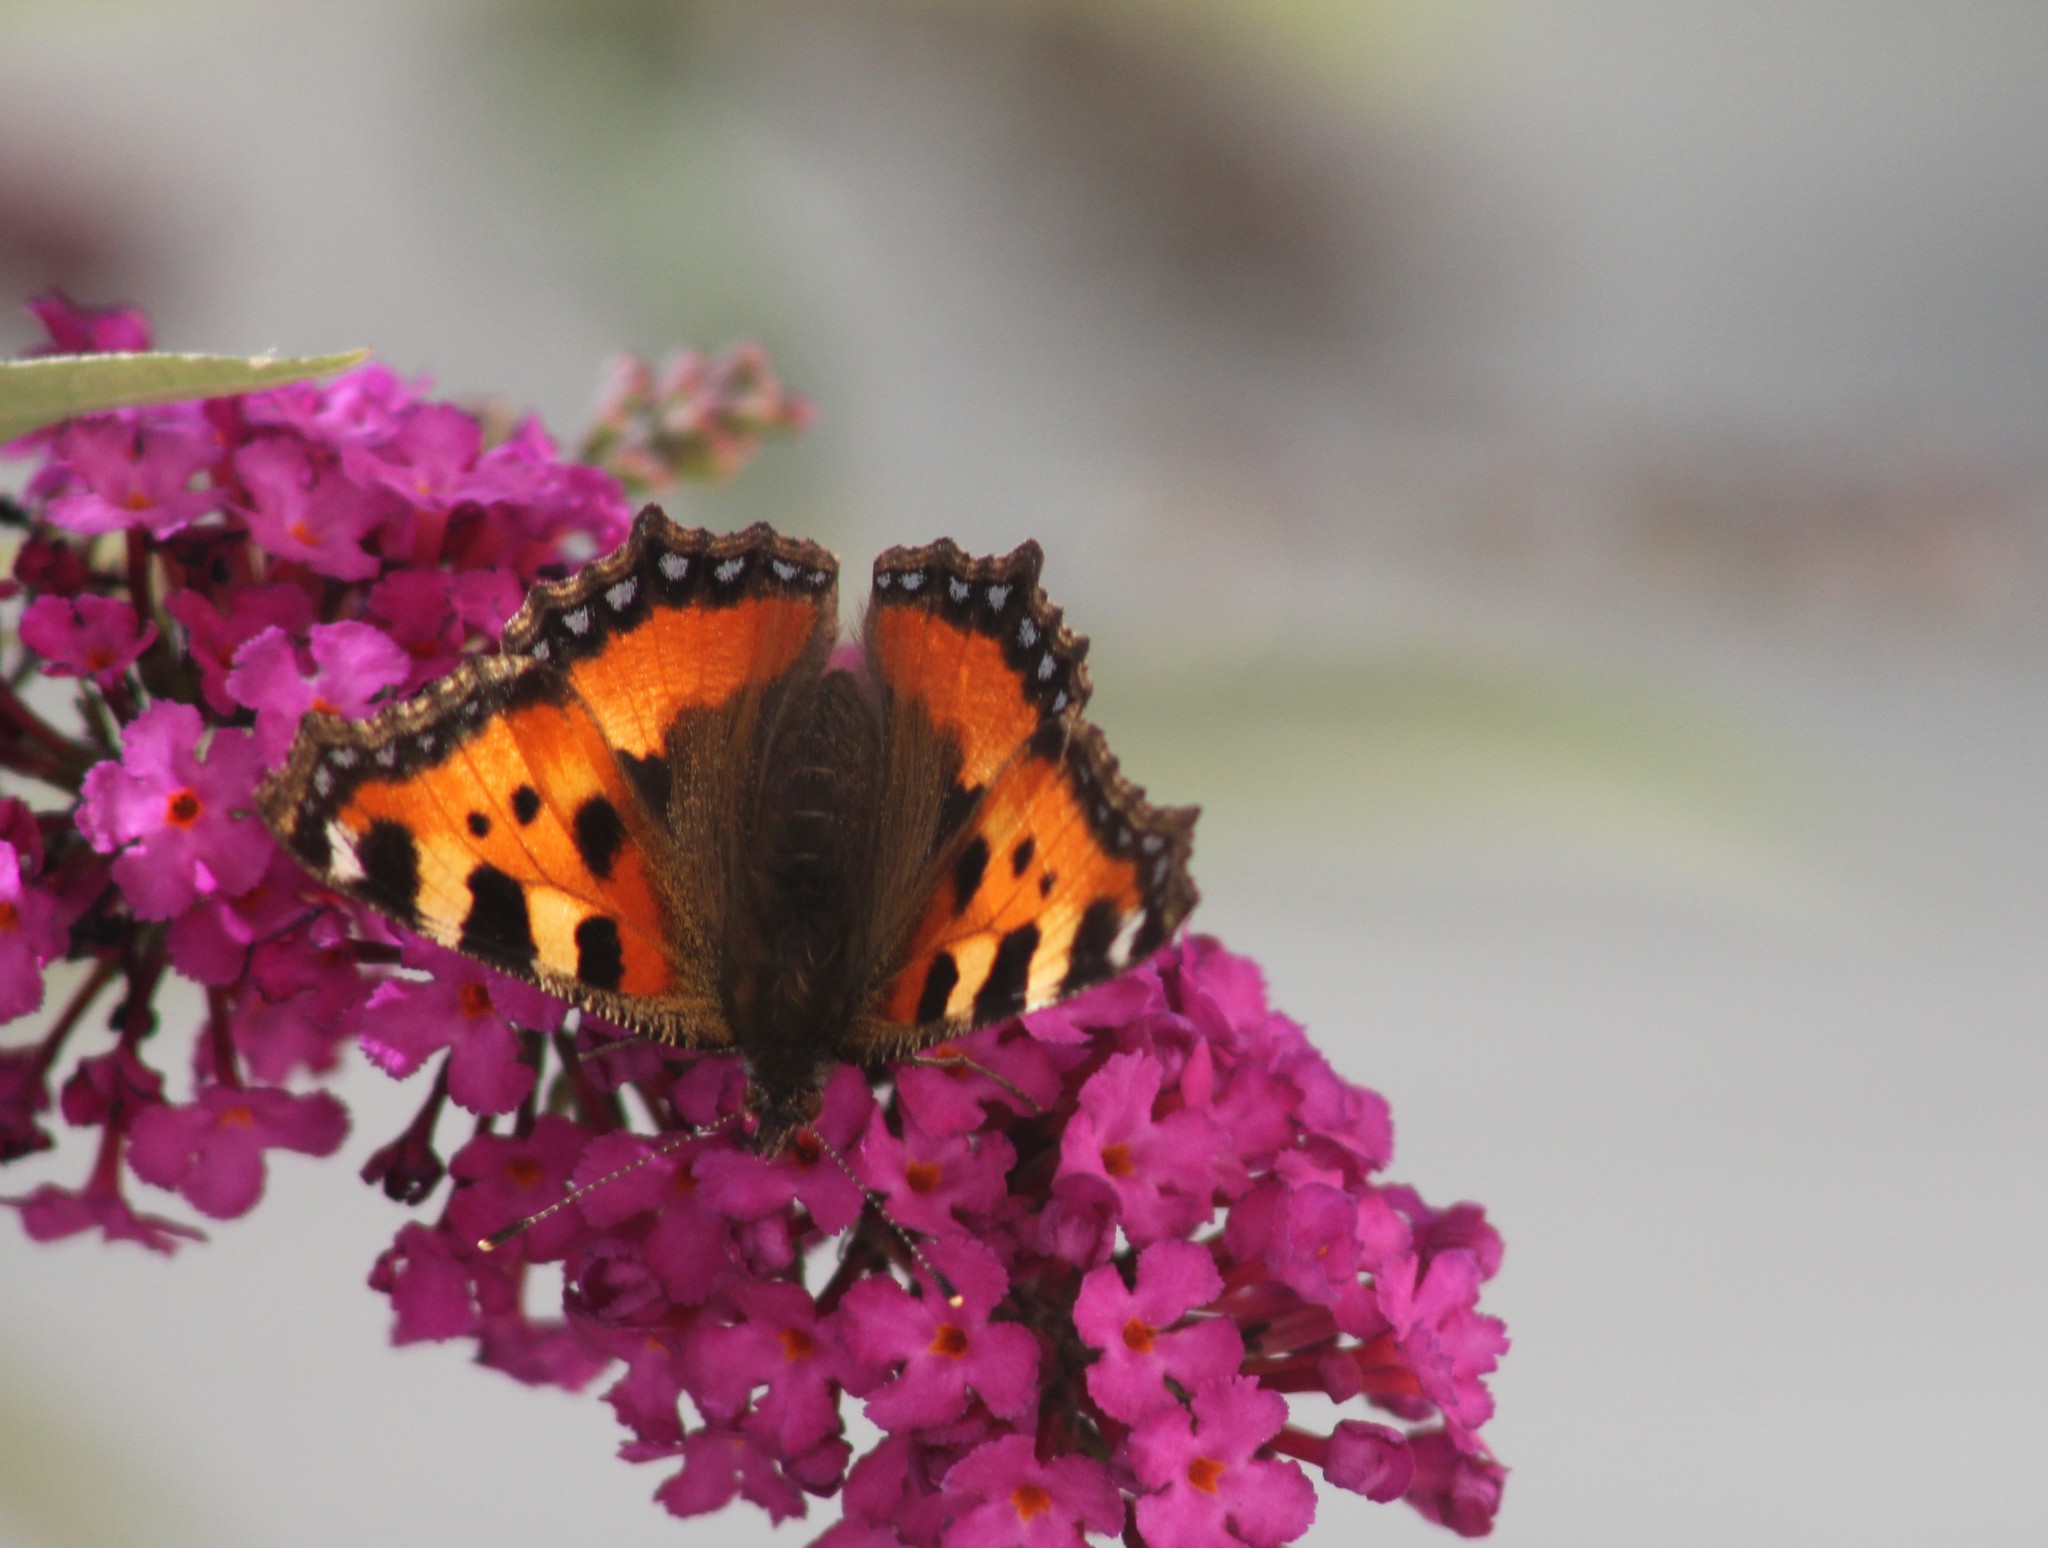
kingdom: Animalia
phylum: Arthropoda
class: Insecta
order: Lepidoptera
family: Nymphalidae
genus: Aglais
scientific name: Aglais urticae
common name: Small tortoiseshell
